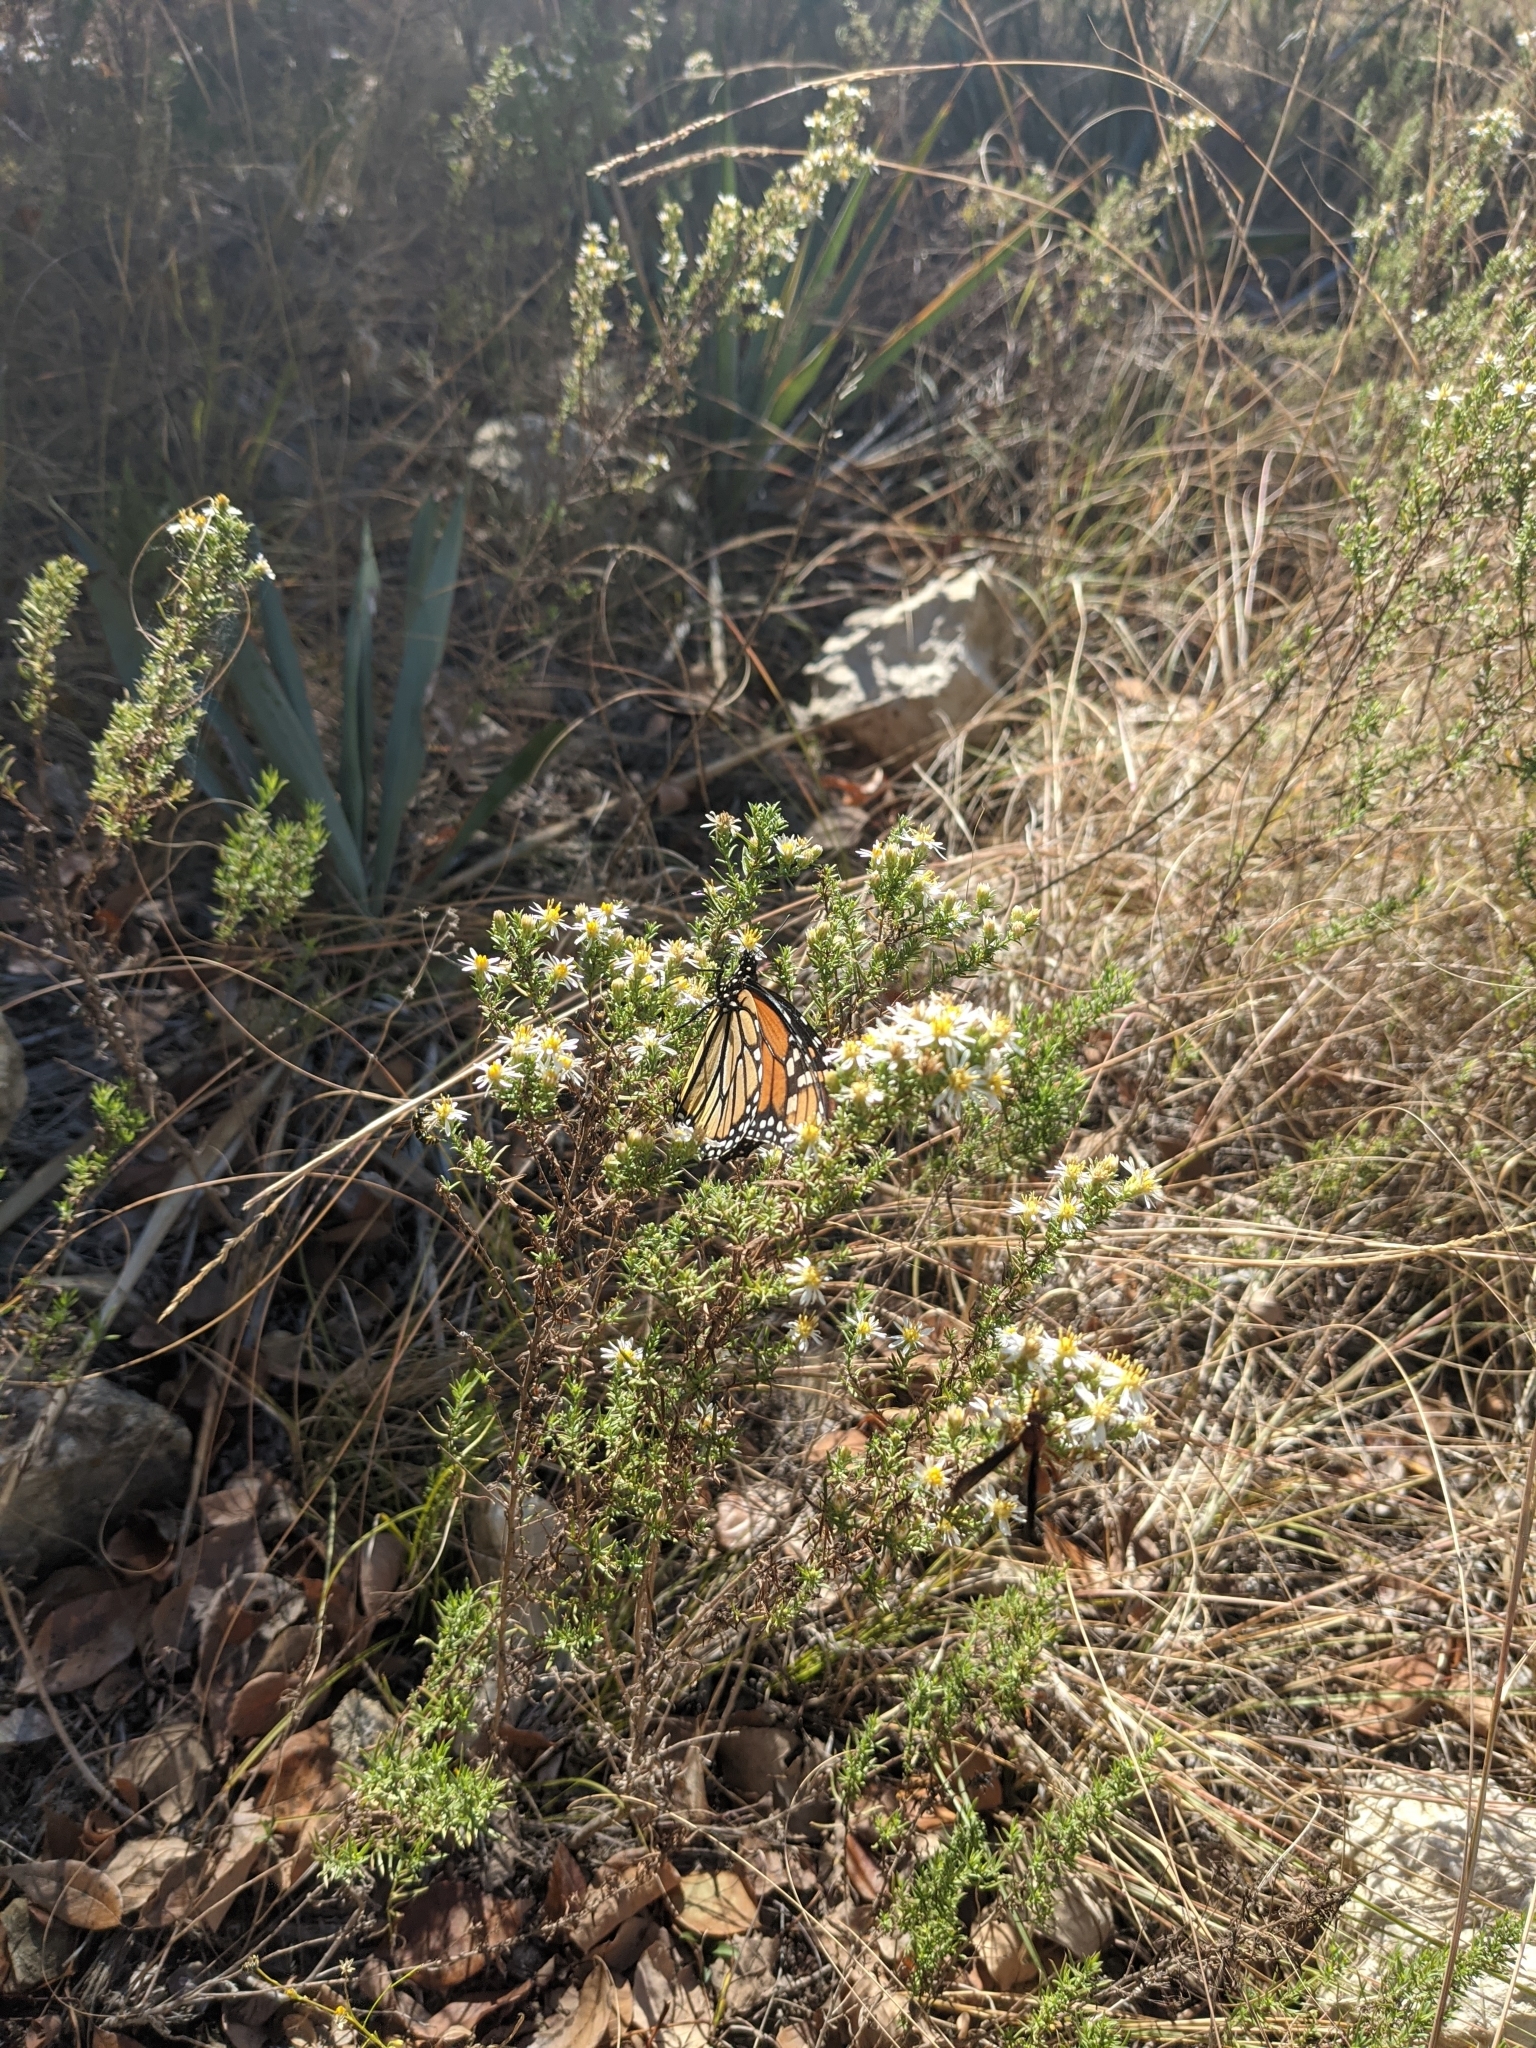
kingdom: Animalia
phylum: Arthropoda
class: Insecta
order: Lepidoptera
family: Nymphalidae
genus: Danaus
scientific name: Danaus plexippus
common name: Monarch
